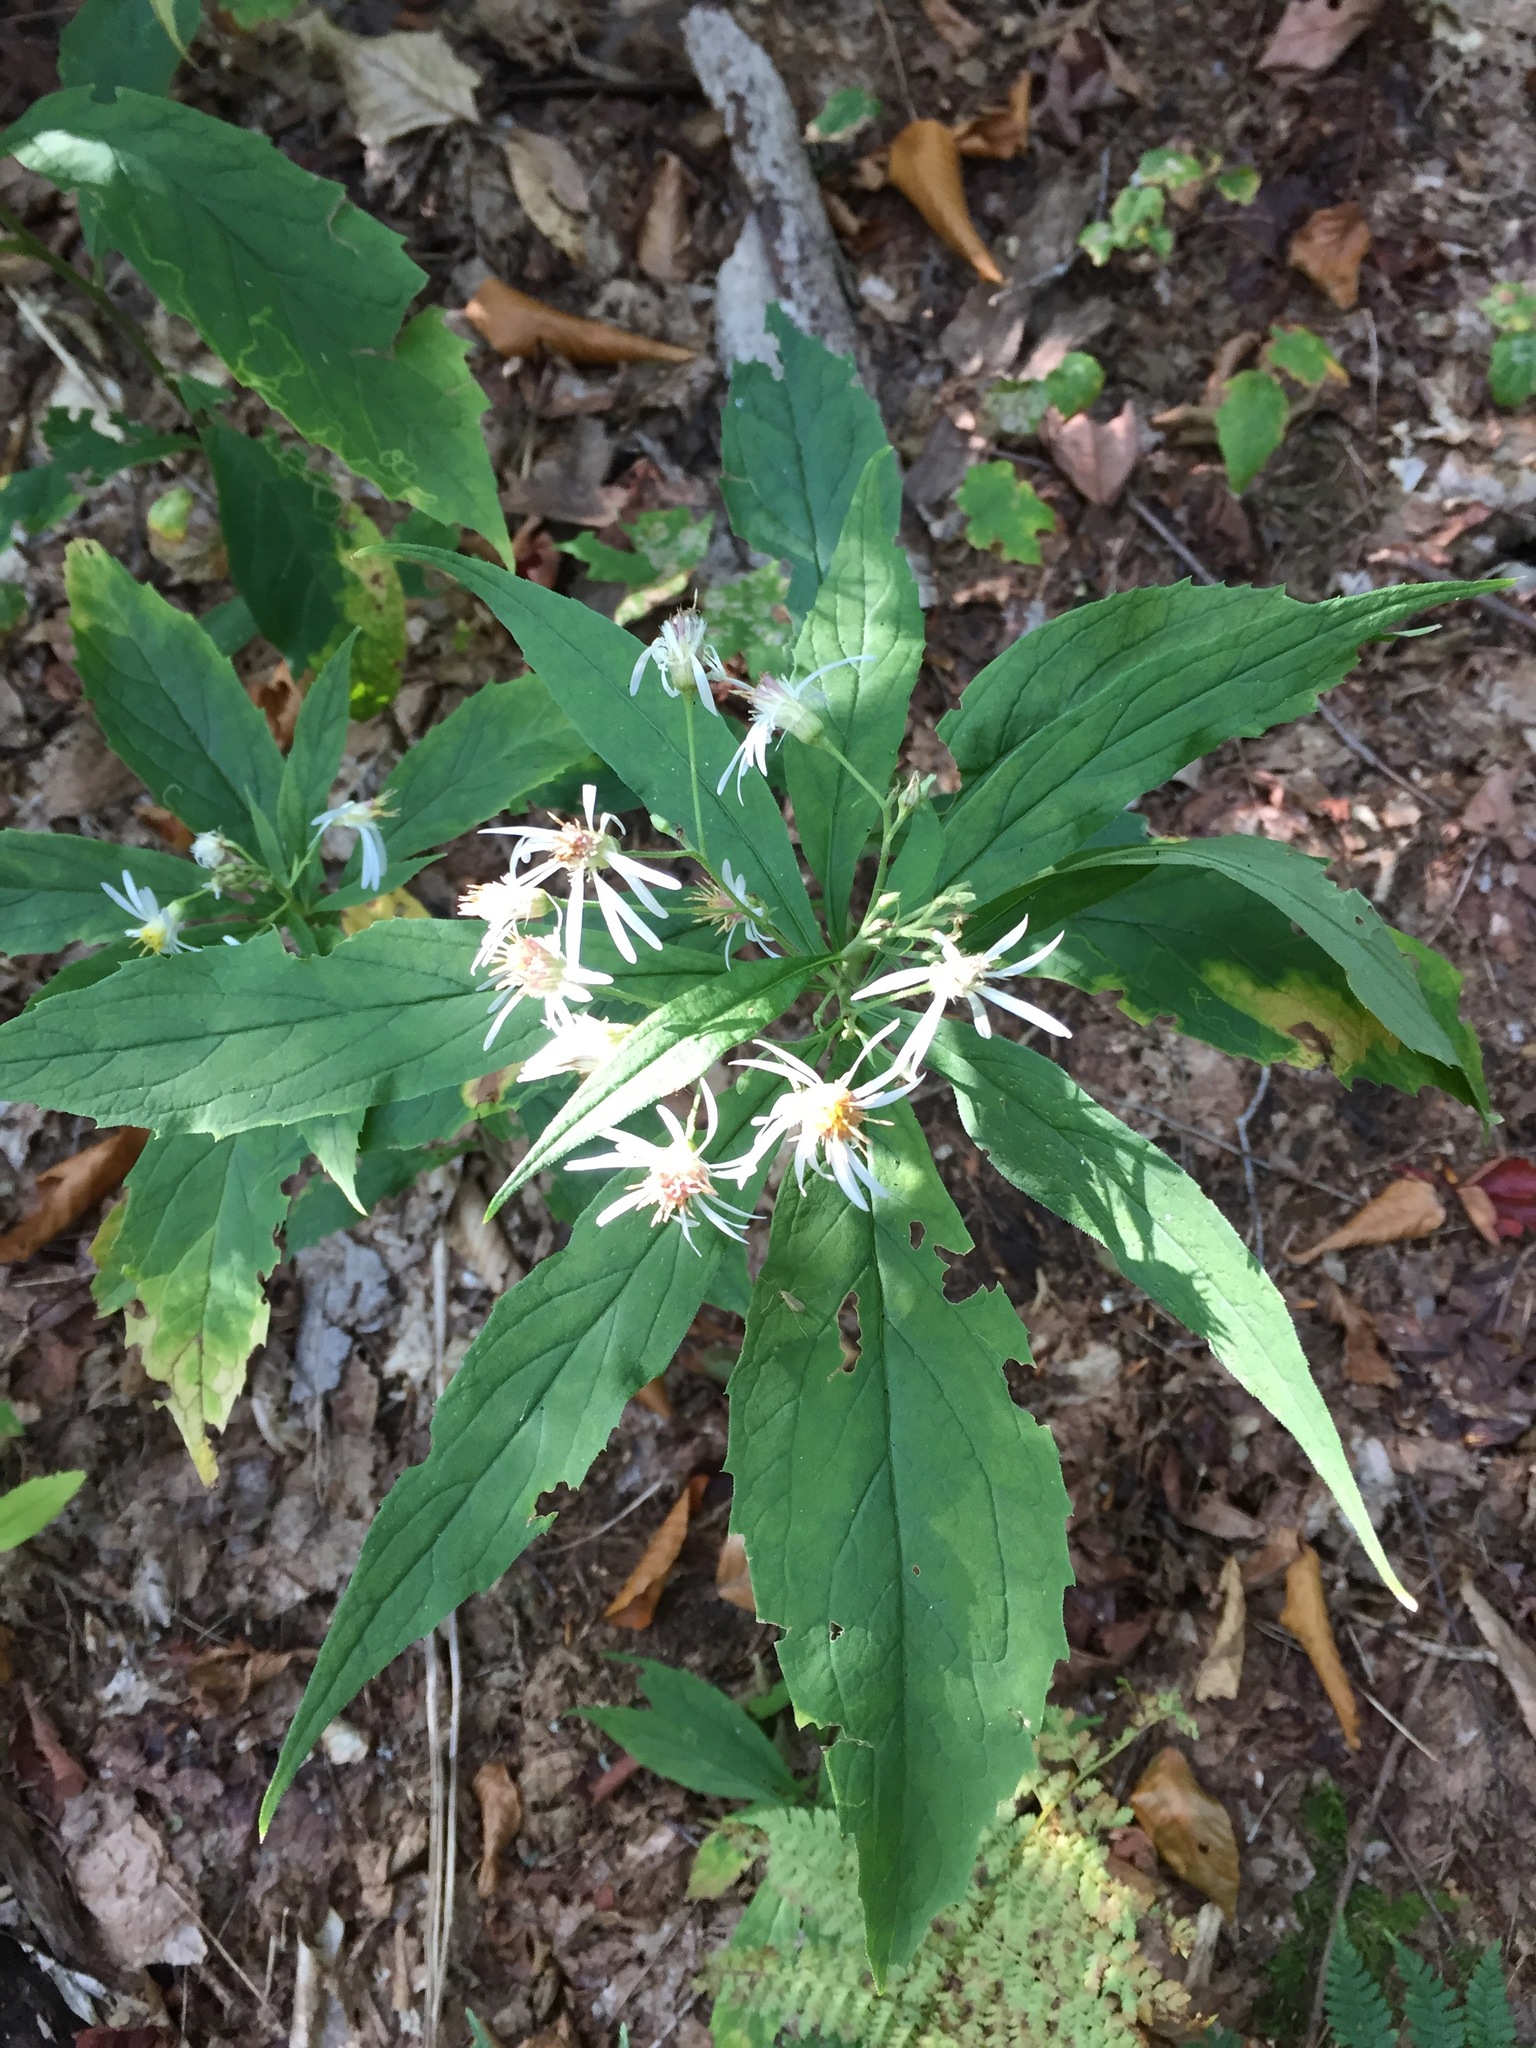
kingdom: Plantae
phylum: Tracheophyta
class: Magnoliopsida
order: Asterales
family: Asteraceae
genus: Oclemena
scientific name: Oclemena acuminata
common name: Mountain aster
